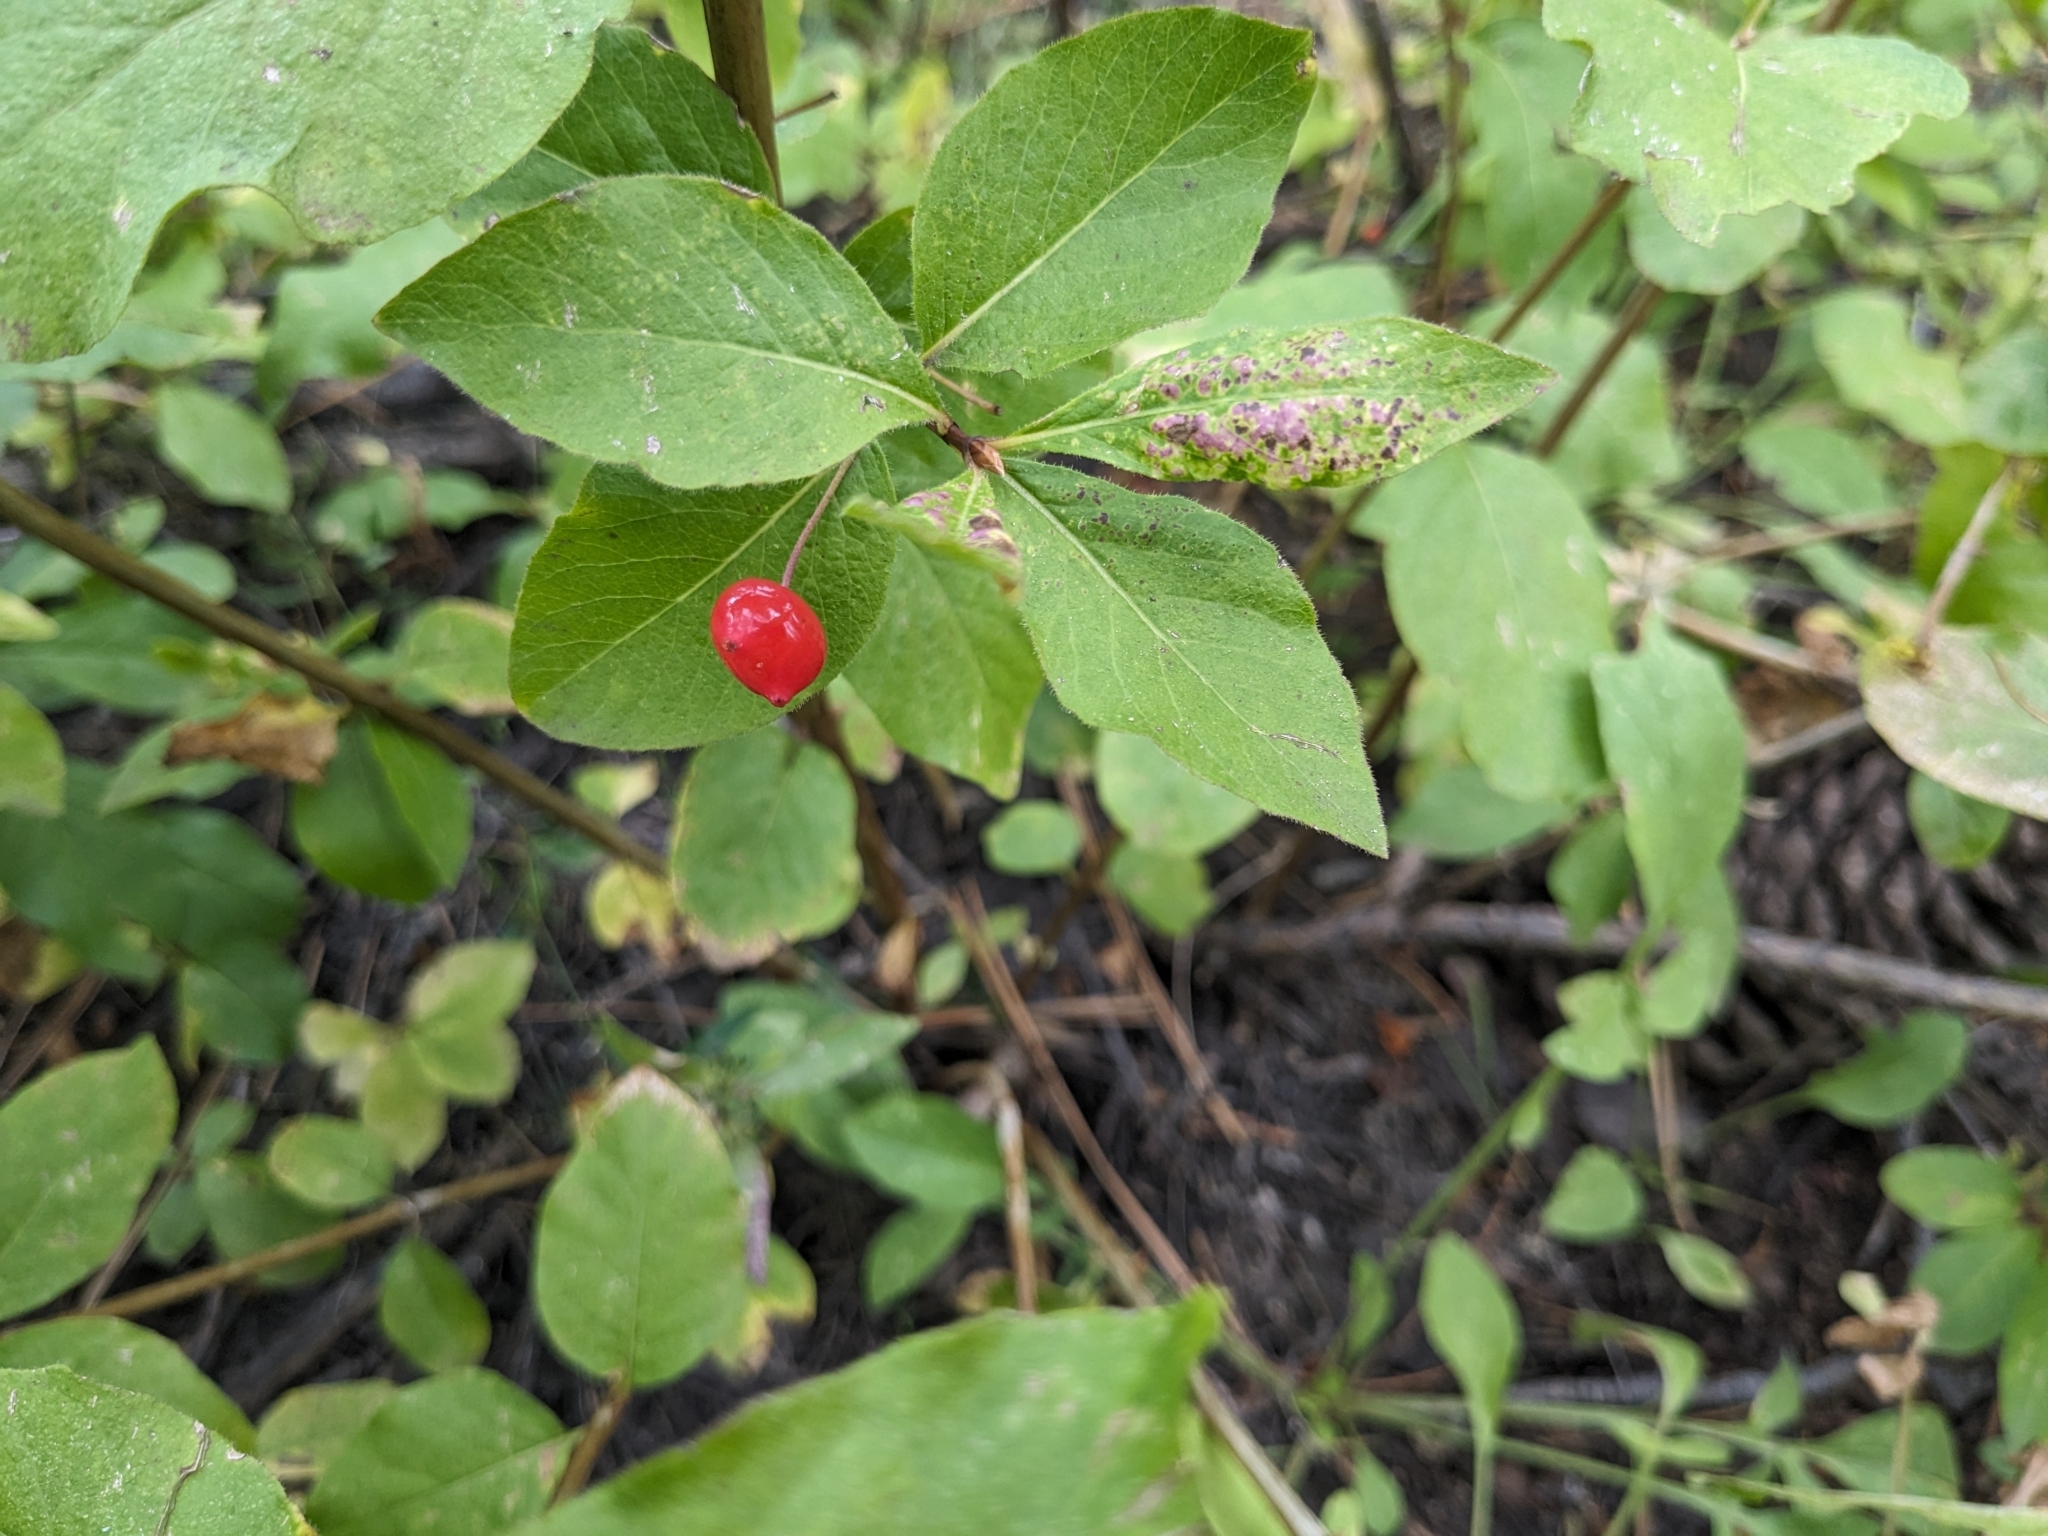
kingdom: Plantae
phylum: Tracheophyta
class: Magnoliopsida
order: Dipsacales
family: Caprifoliaceae
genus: Lonicera
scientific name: Lonicera conjugialis
